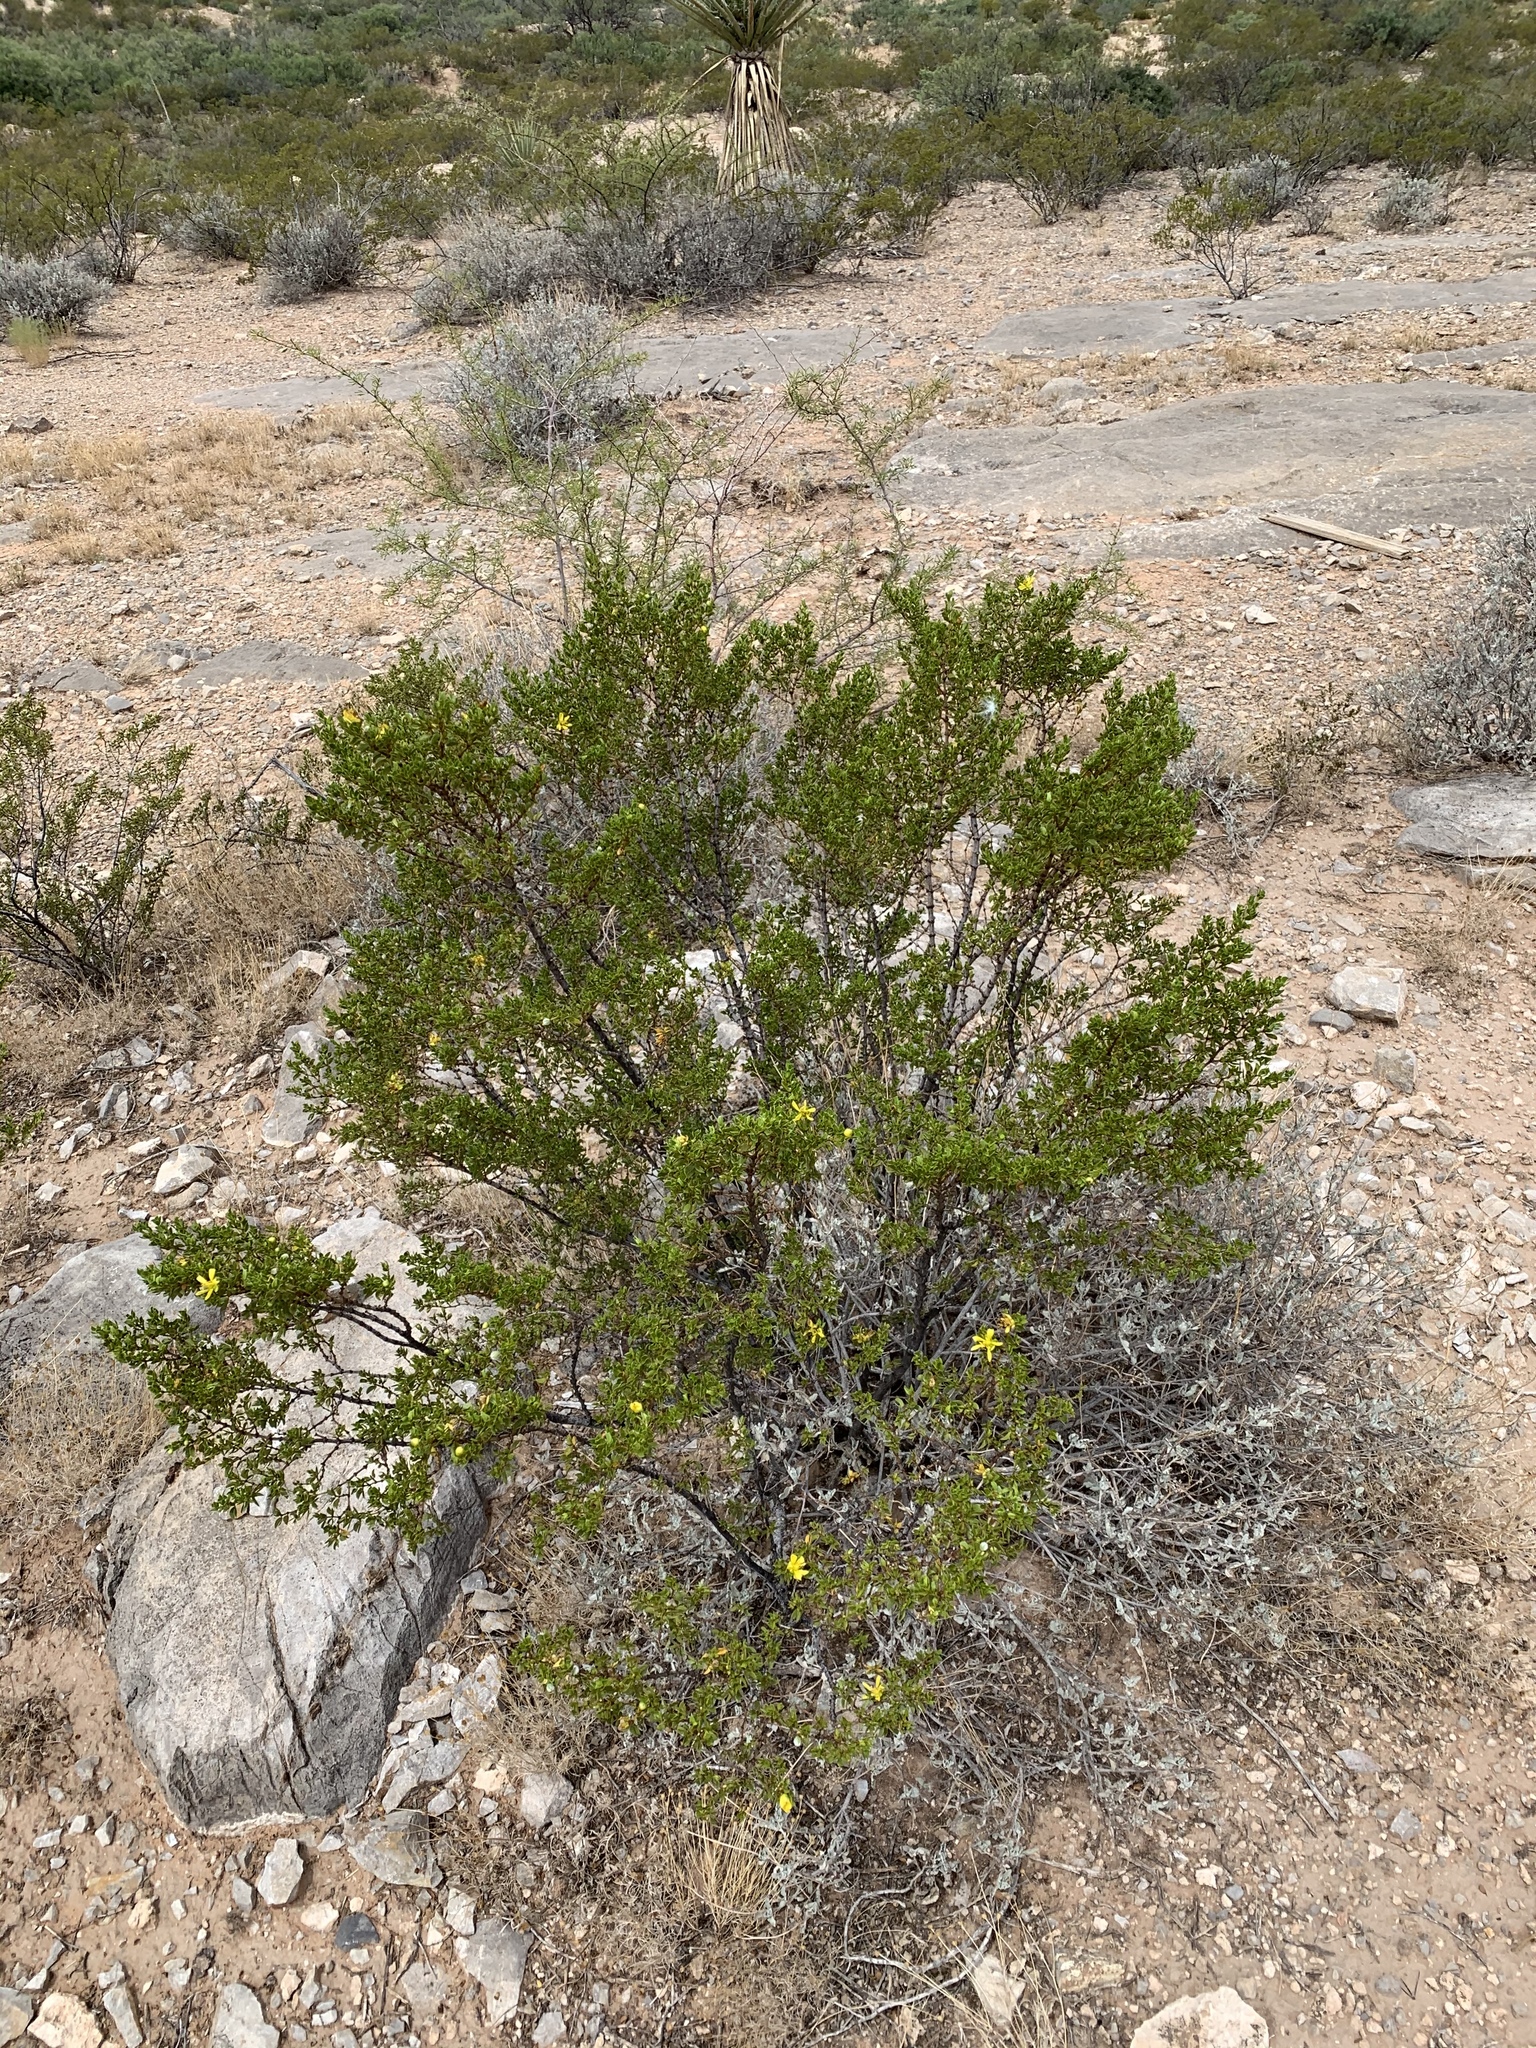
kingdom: Plantae
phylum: Tracheophyta
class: Magnoliopsida
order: Zygophyllales
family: Zygophyllaceae
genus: Larrea
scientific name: Larrea tridentata
